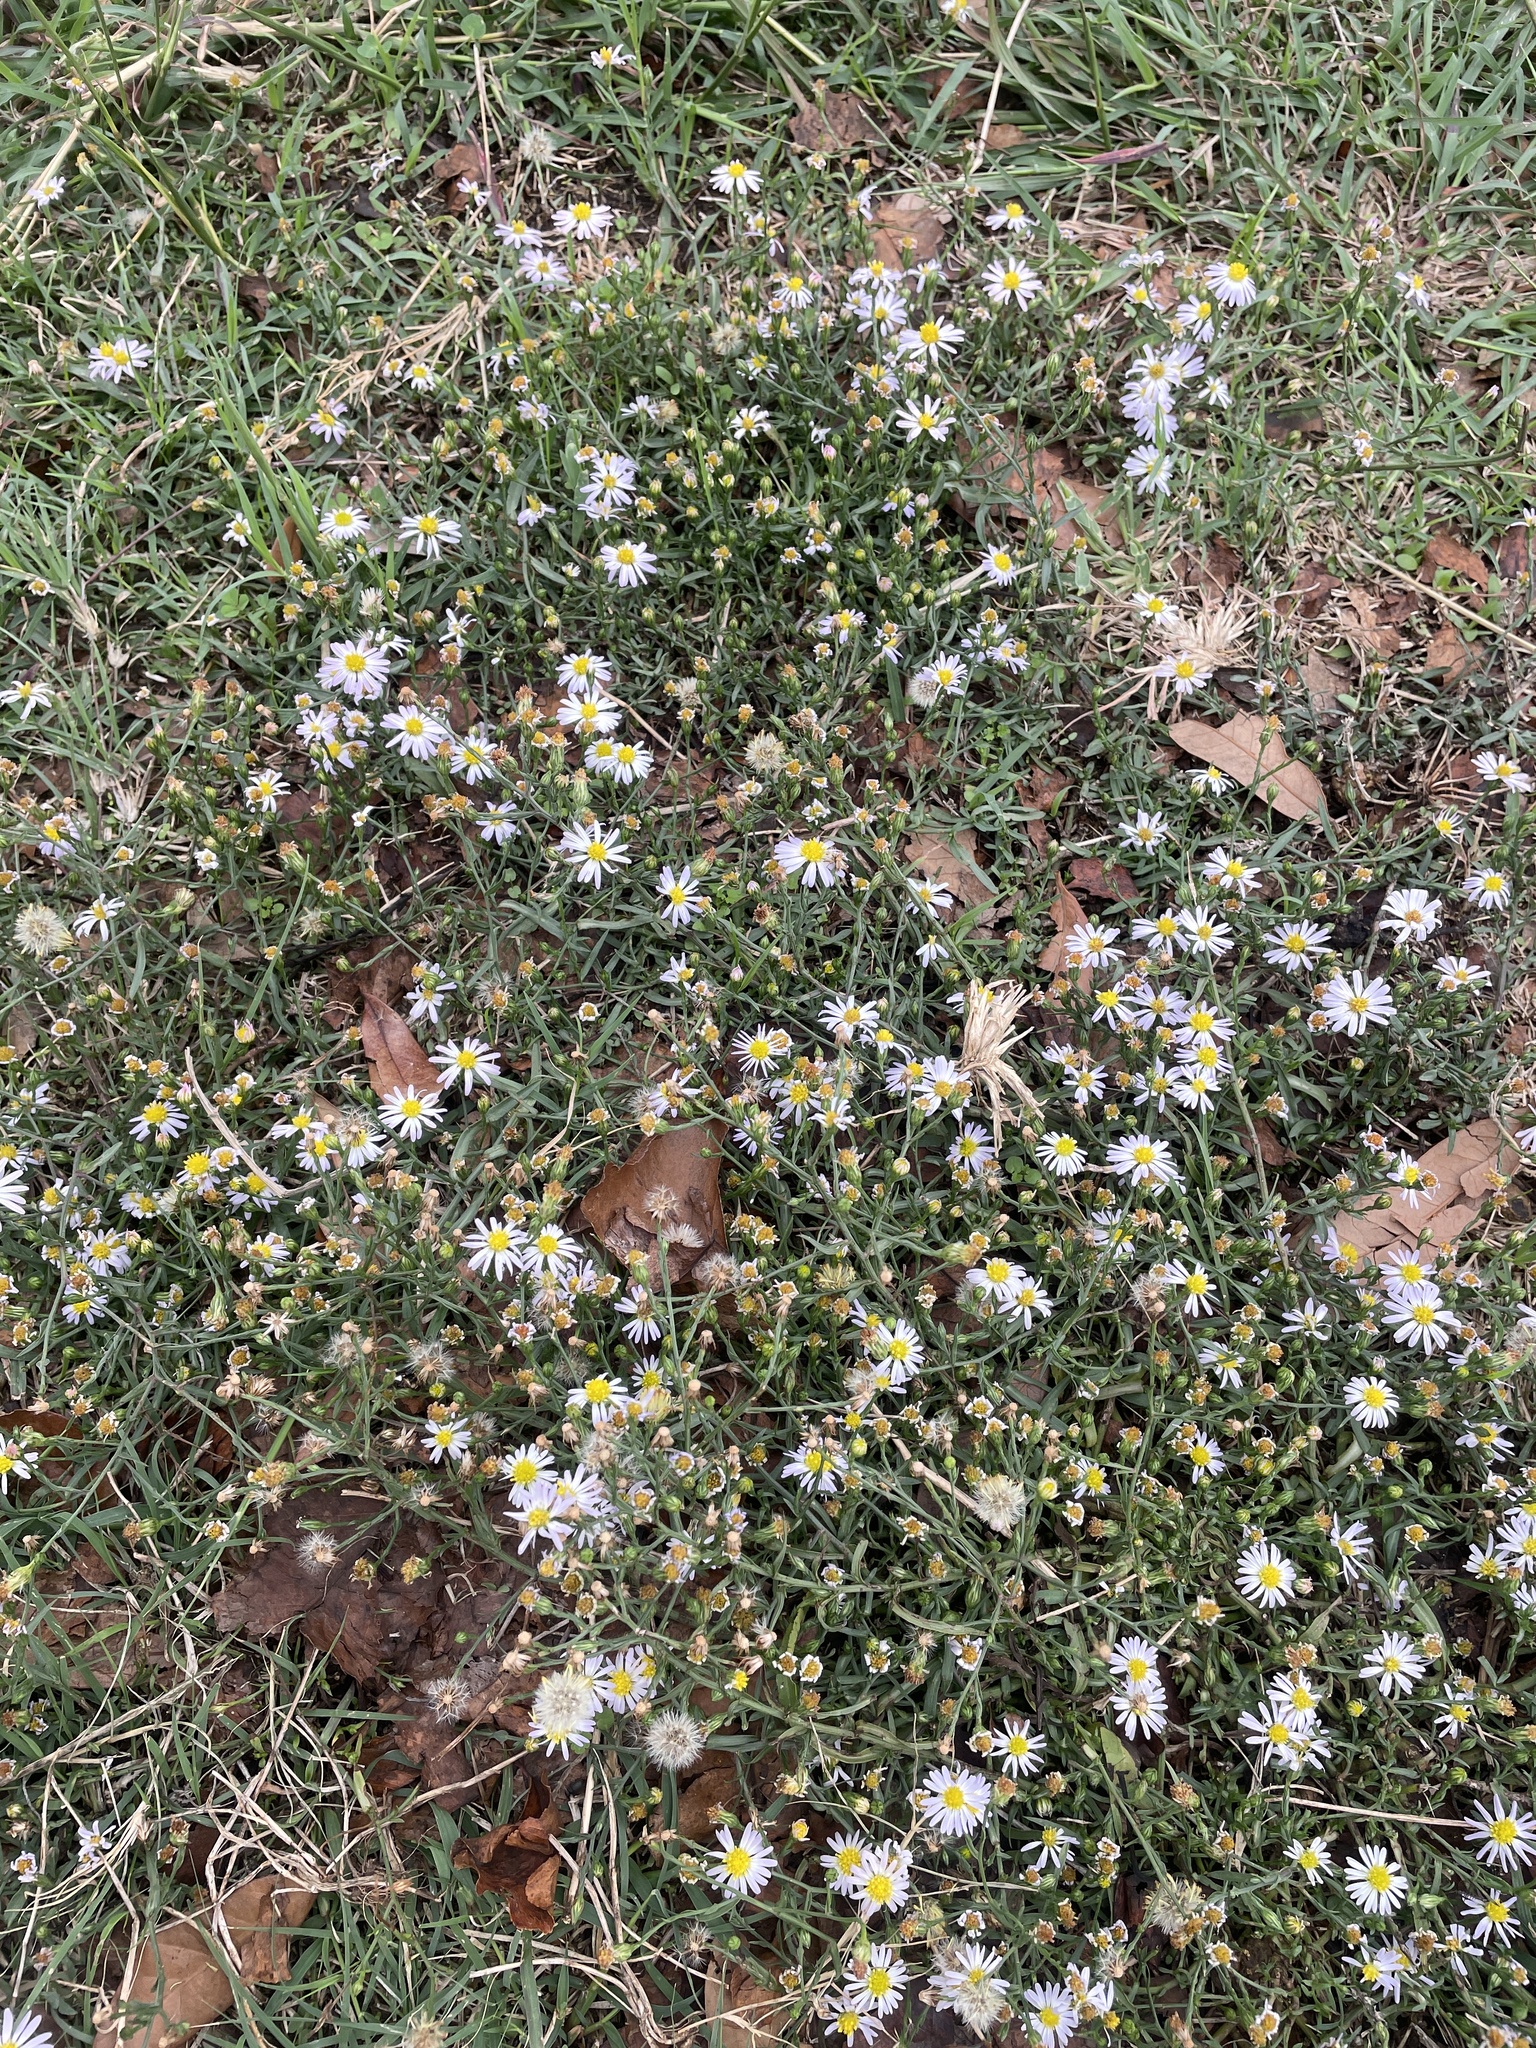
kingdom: Plantae
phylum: Tracheophyta
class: Magnoliopsida
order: Asterales
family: Asteraceae
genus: Symphyotrichum
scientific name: Symphyotrichum divaricatum
